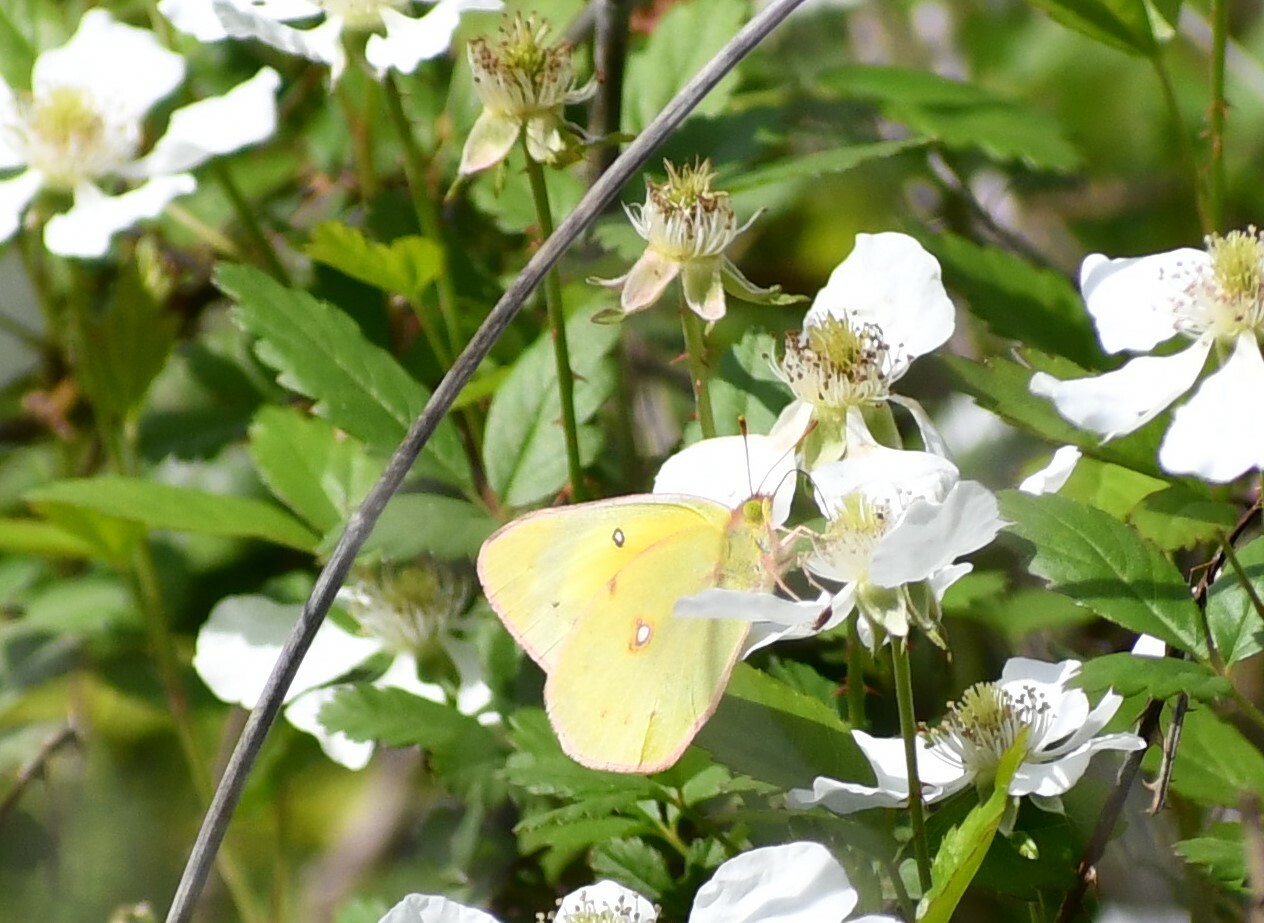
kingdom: Animalia
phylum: Arthropoda
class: Insecta
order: Lepidoptera
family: Pieridae
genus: Colias
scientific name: Colias eurytheme
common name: Alfalfa butterfly
